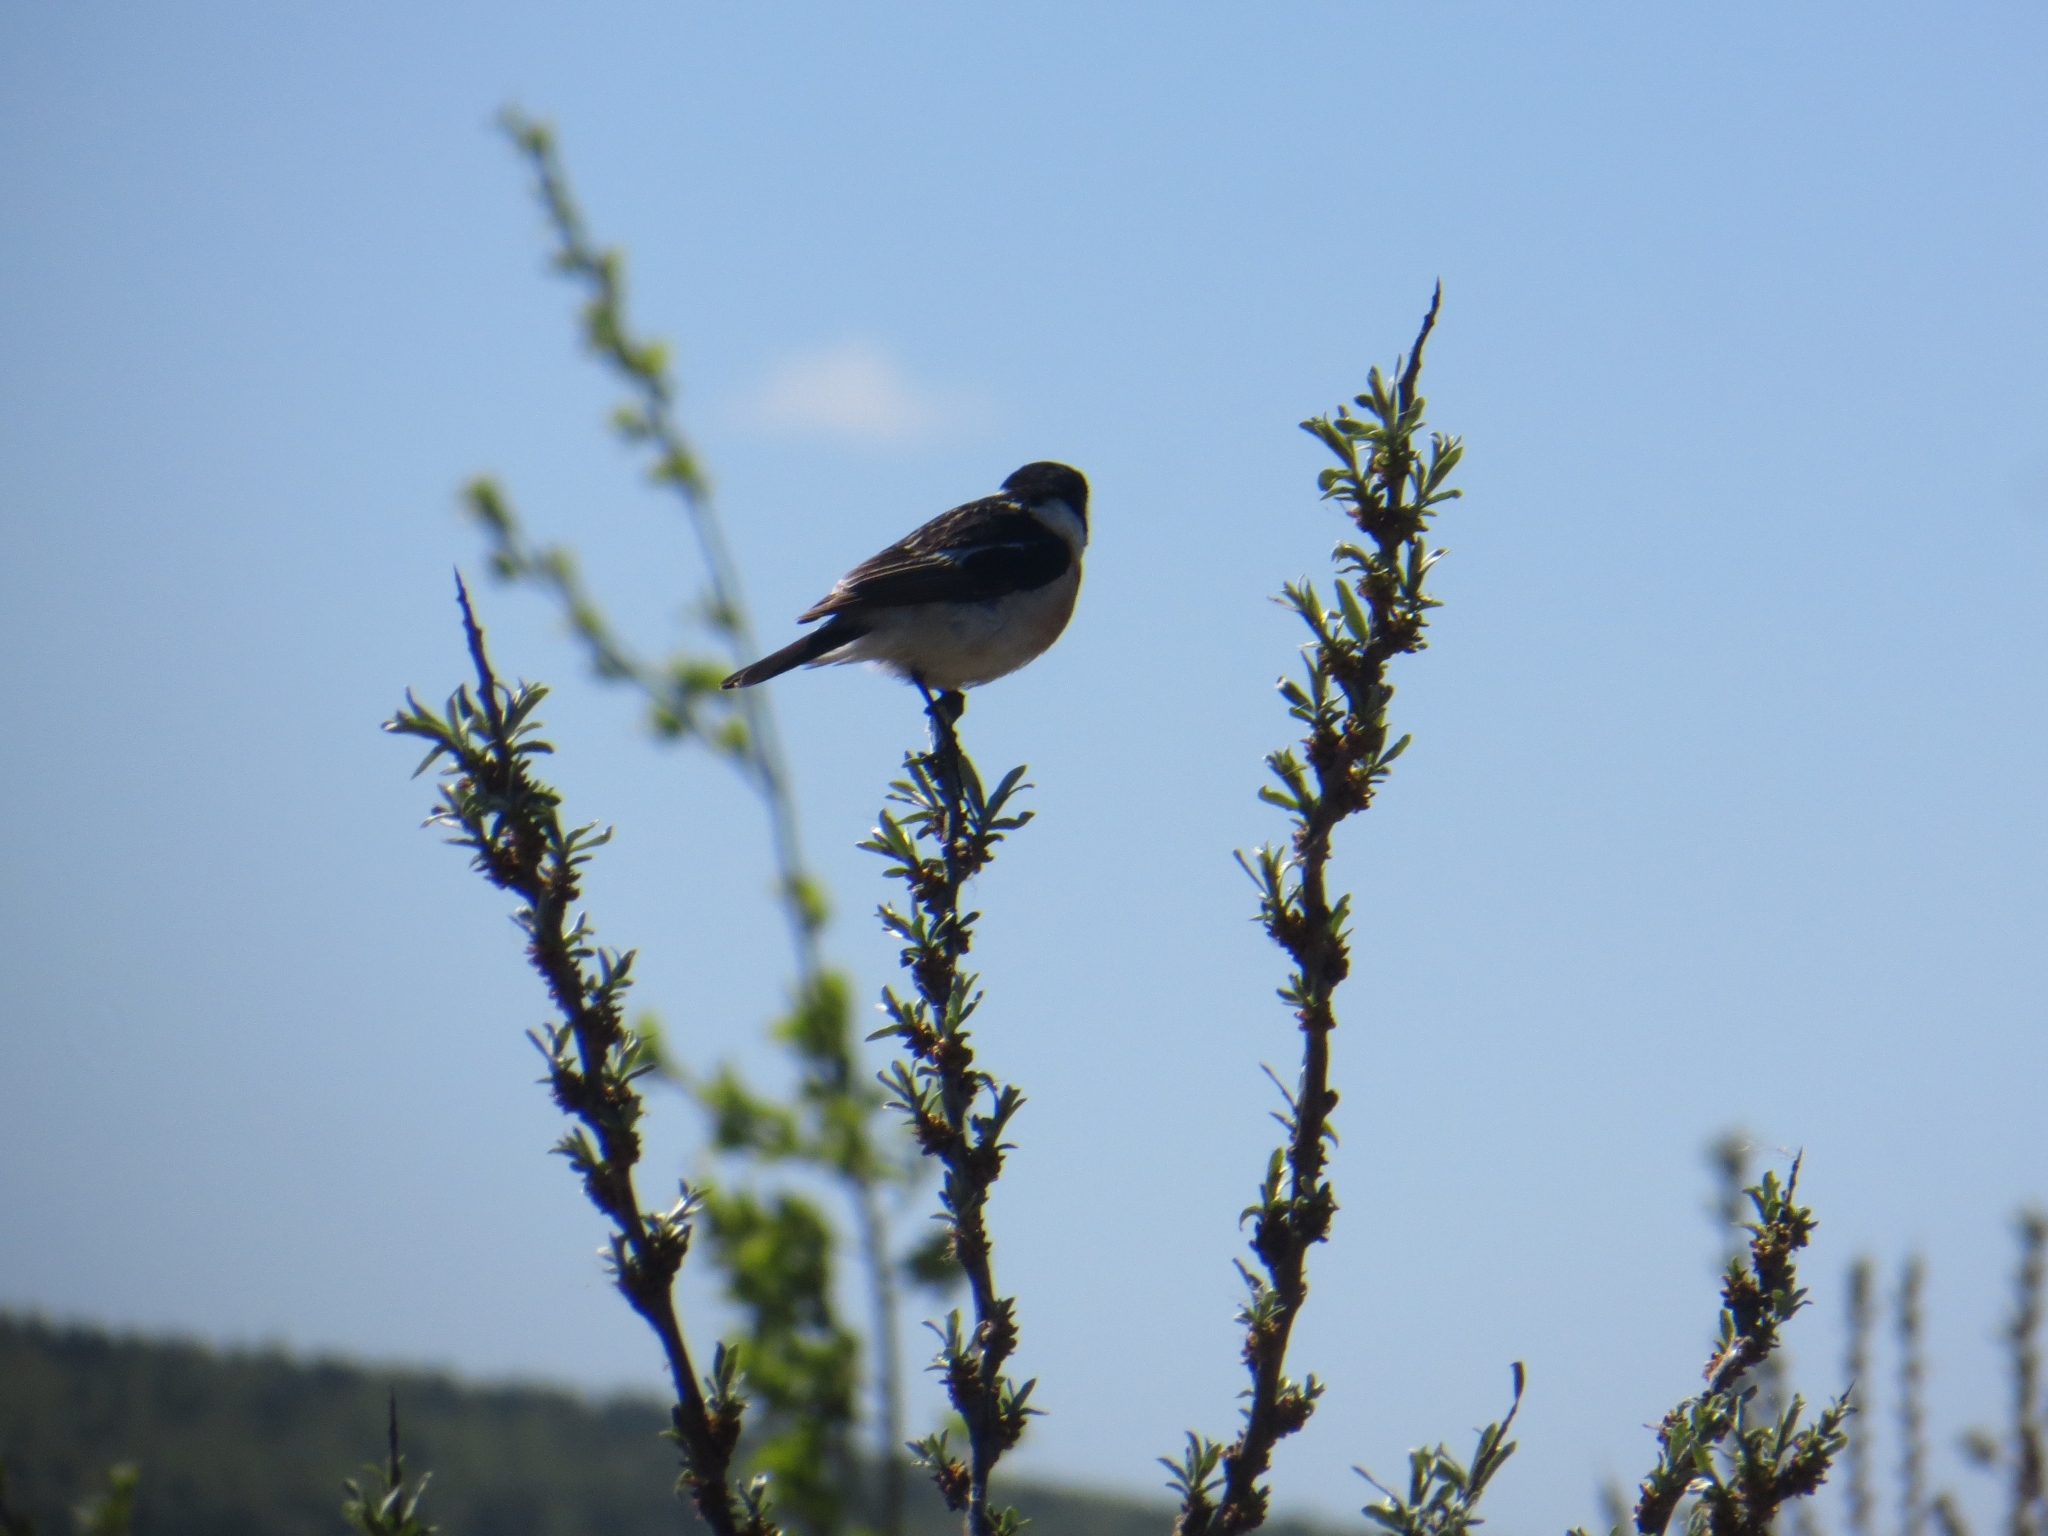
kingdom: Animalia
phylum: Chordata
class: Aves
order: Passeriformes
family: Muscicapidae
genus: Saxicola
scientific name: Saxicola maurus
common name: Siberian stonechat
